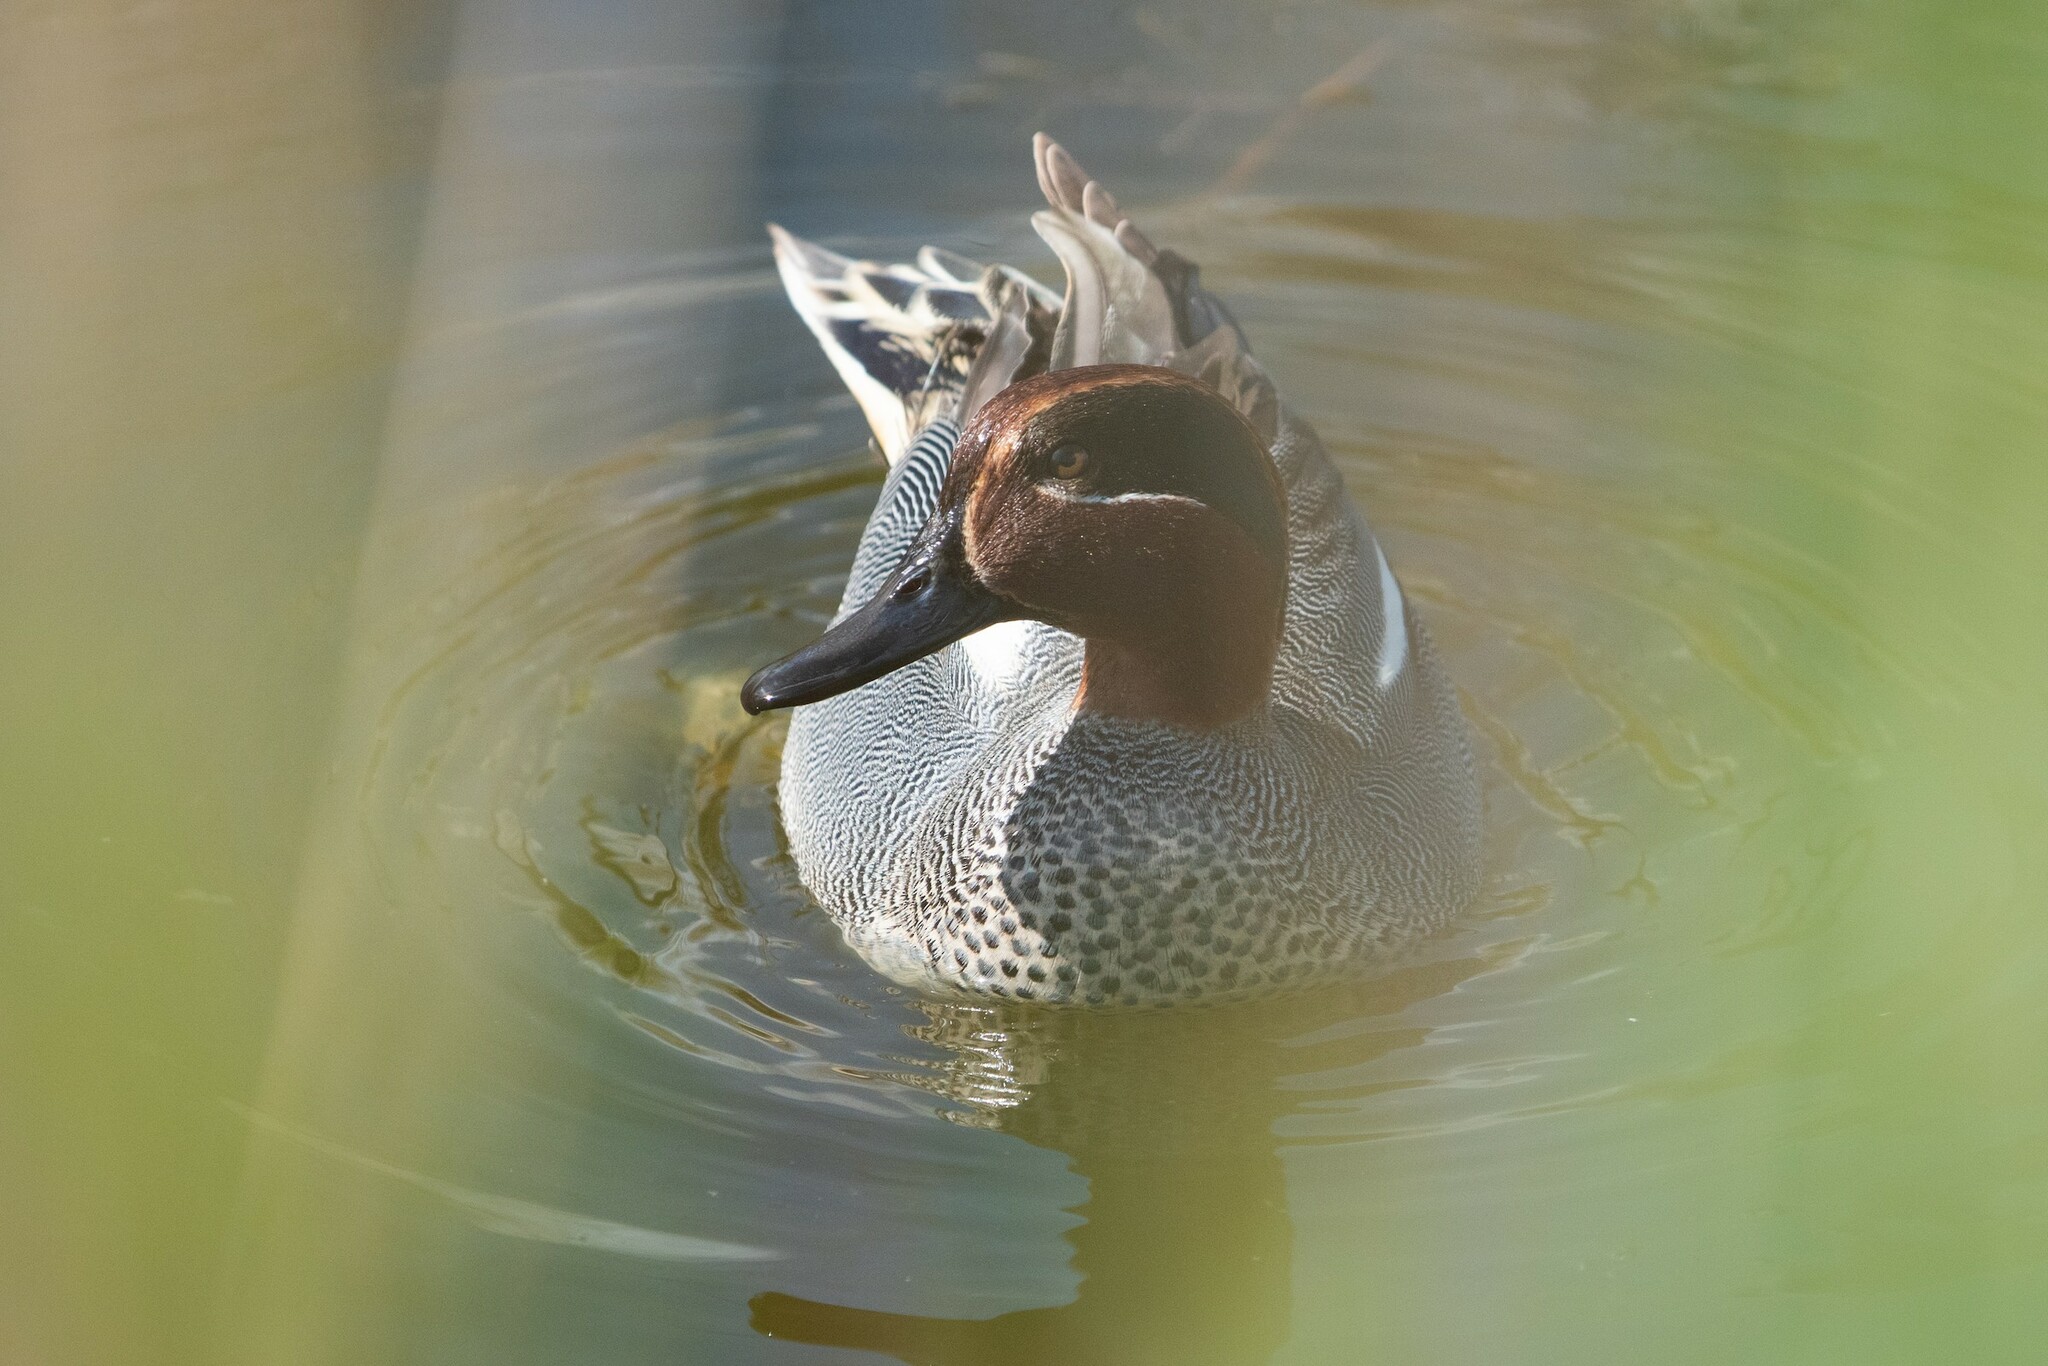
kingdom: Animalia
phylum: Chordata
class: Aves
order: Anseriformes
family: Anatidae
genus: Anas
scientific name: Anas crecca
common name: Eurasian teal
